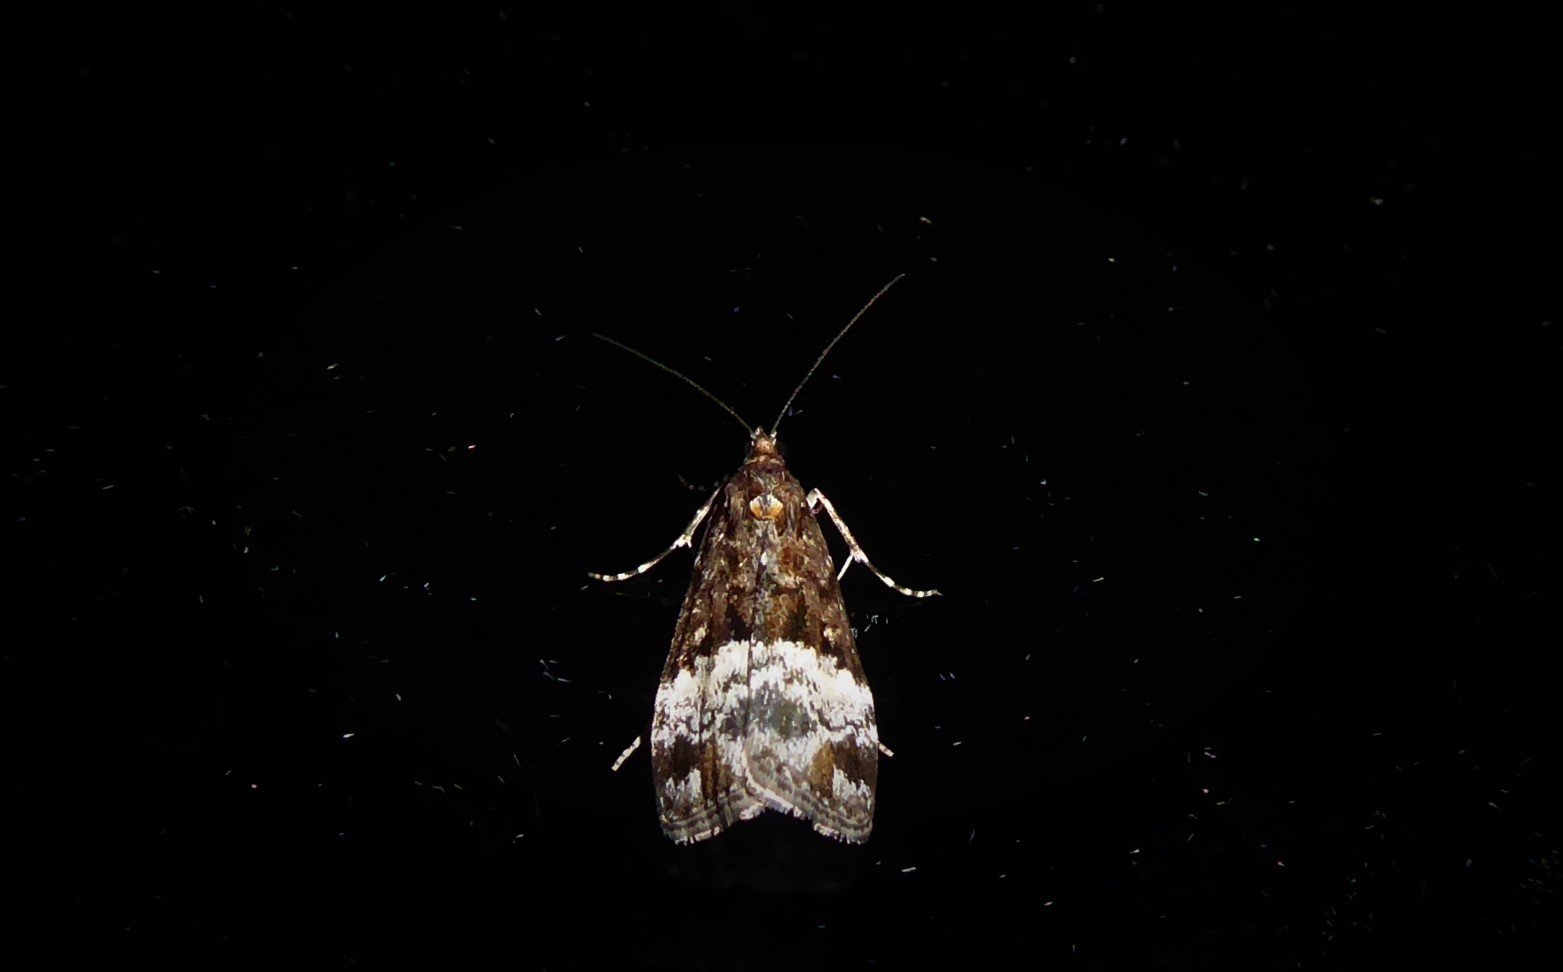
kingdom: Animalia
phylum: Arthropoda
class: Insecta
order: Lepidoptera
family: Crambidae
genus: Scoparia
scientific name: Scoparia minusculalis
